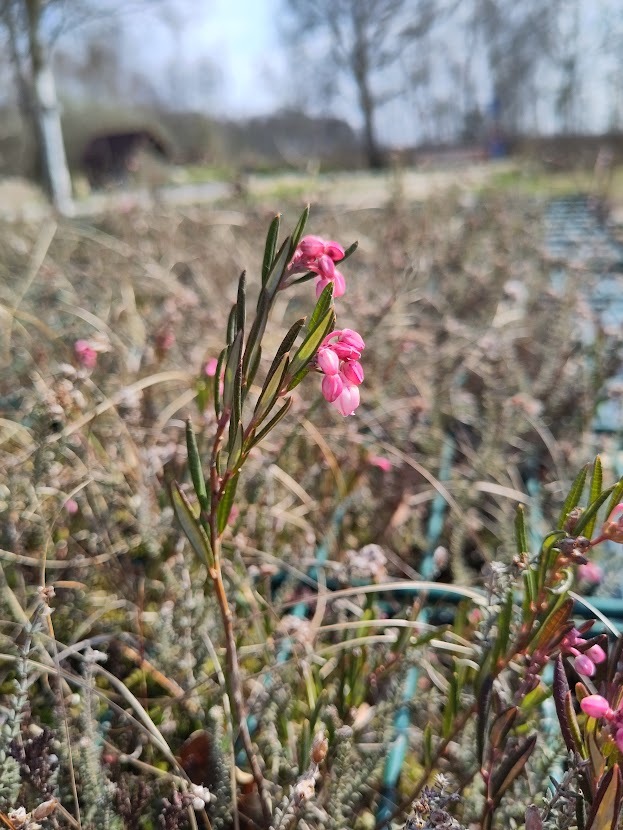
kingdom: Plantae
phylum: Tracheophyta
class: Magnoliopsida
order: Ericales
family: Ericaceae
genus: Andromeda
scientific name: Andromeda polifolia
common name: Bog-rosemary
